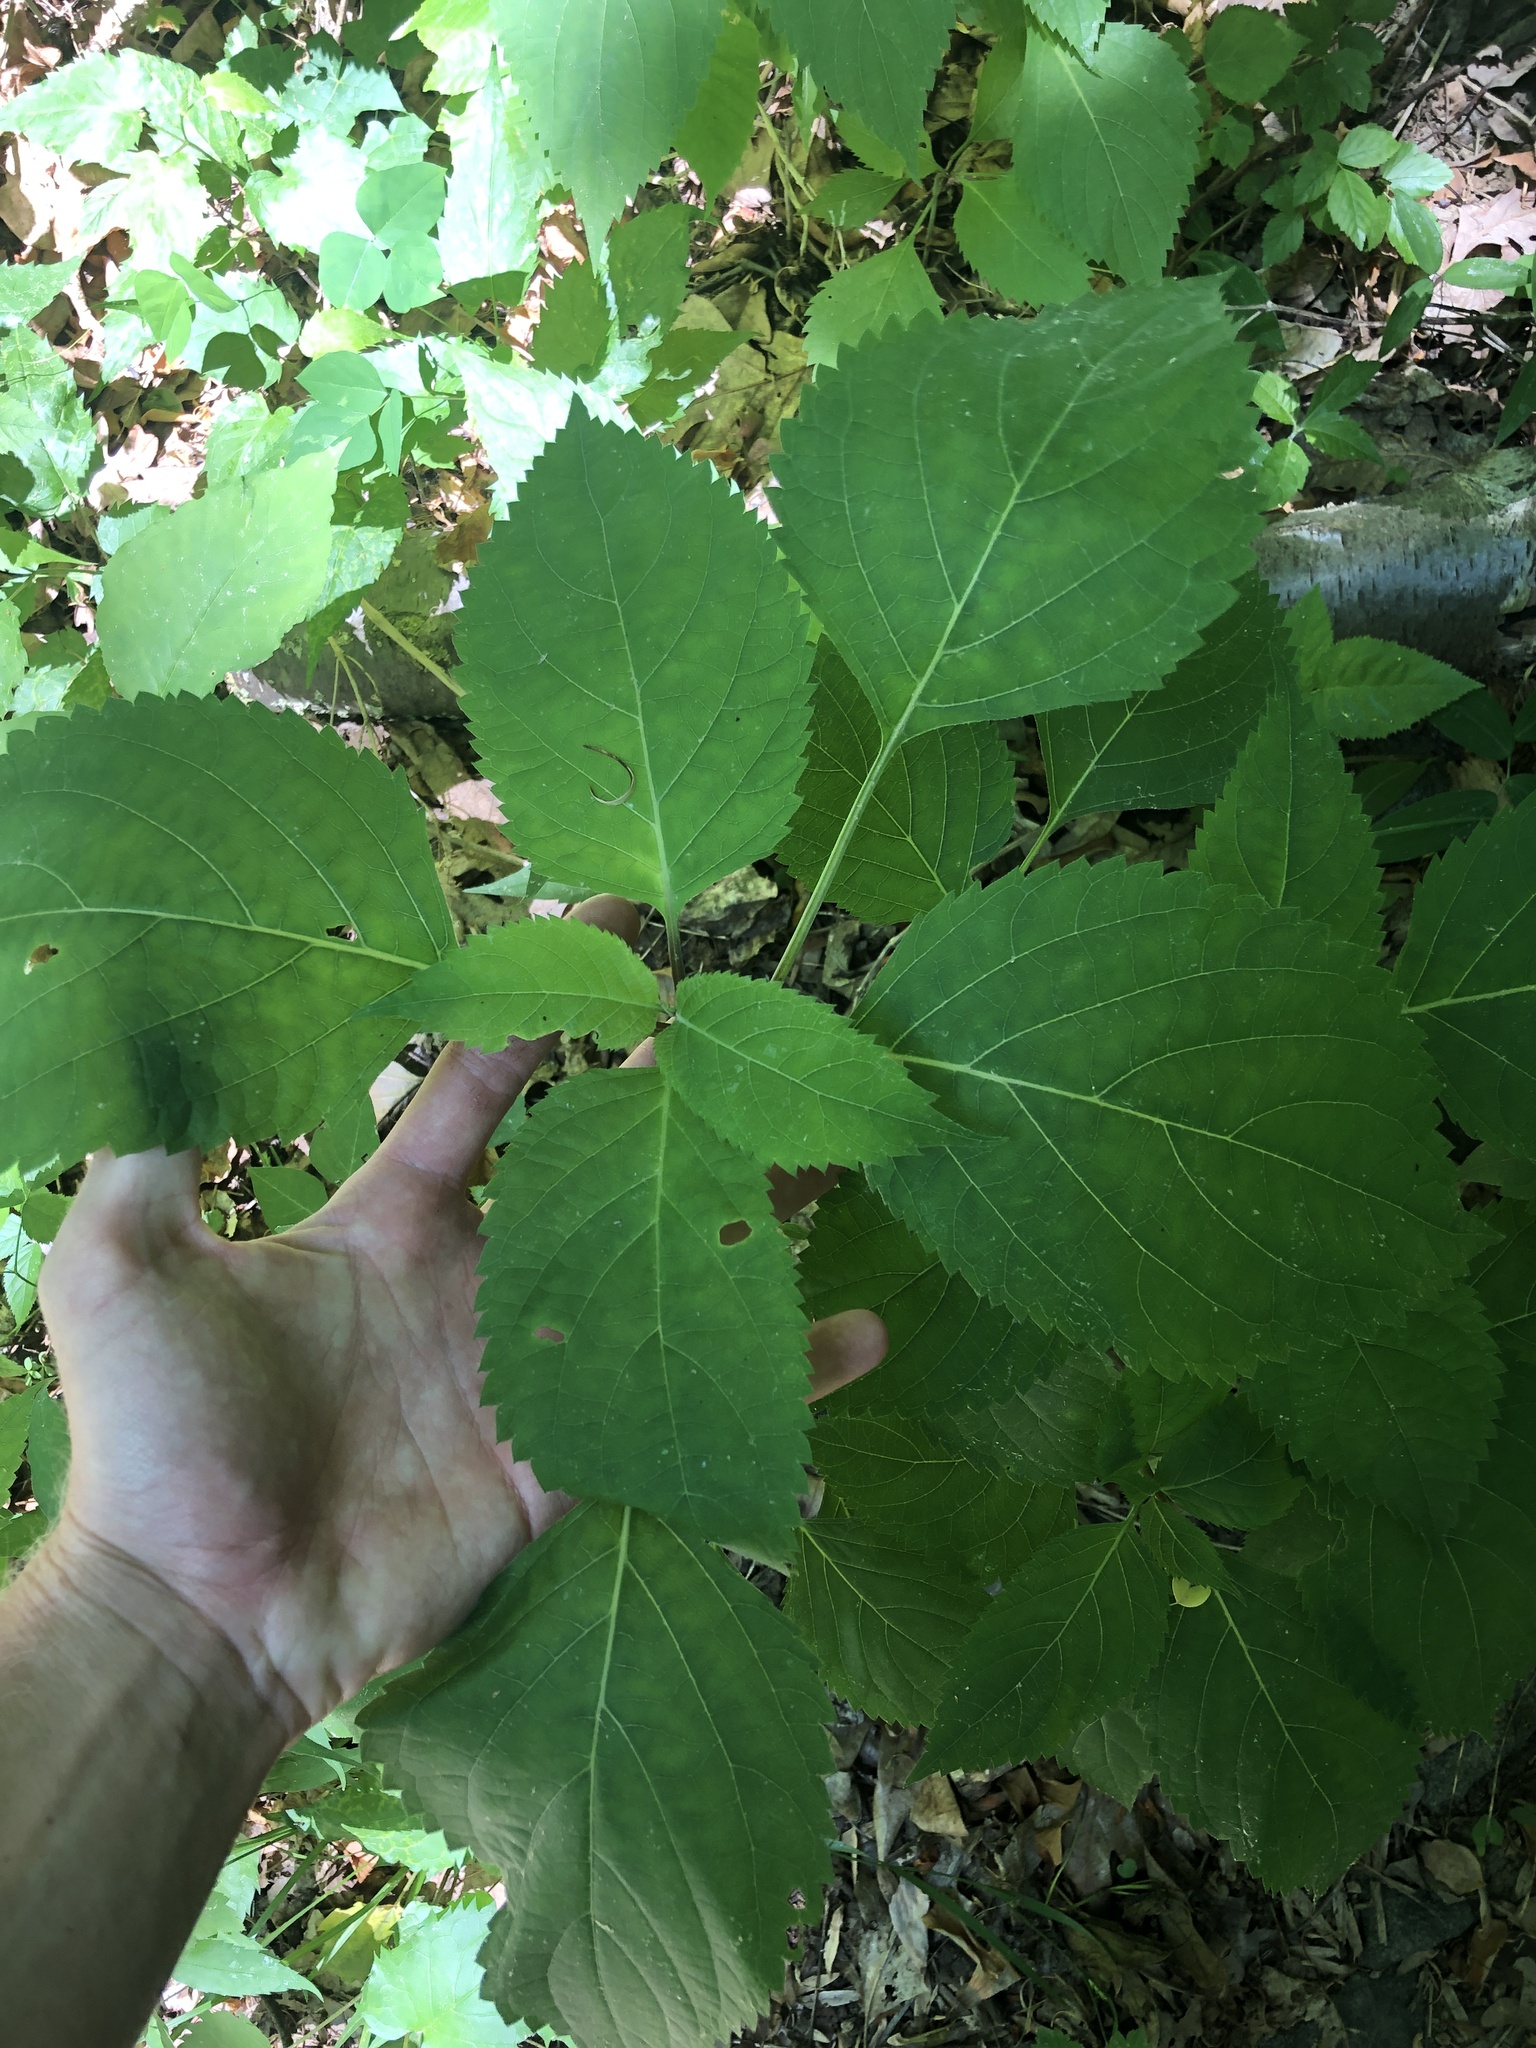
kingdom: Plantae
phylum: Tracheophyta
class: Magnoliopsida
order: Lamiales
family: Lamiaceae
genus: Collinsonia
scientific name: Collinsonia canadensis
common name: Northern horsebalm
